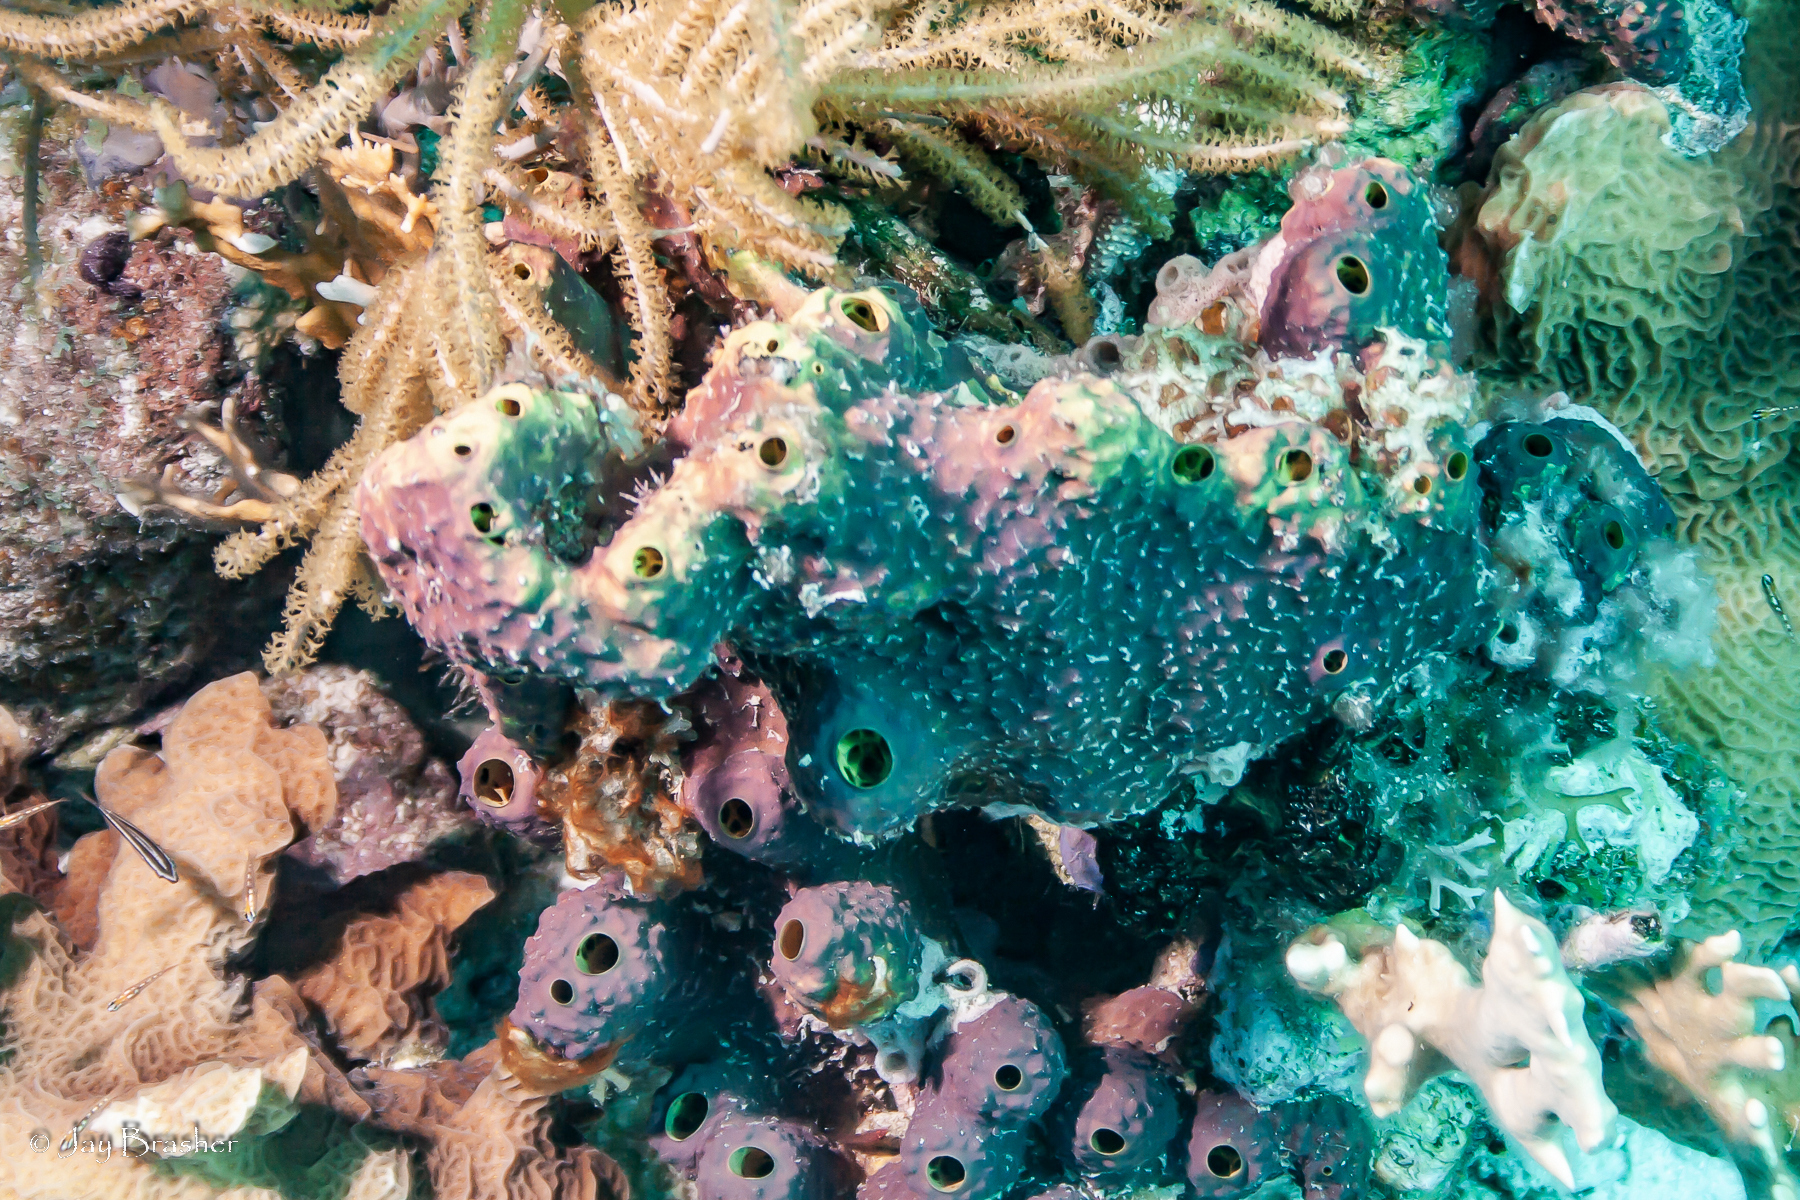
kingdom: Animalia
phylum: Porifera
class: Demospongiae
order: Verongiida
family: Aplysinidae
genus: Aiolochroia
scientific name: Aiolochroia crassa
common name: Branching tube sponge
